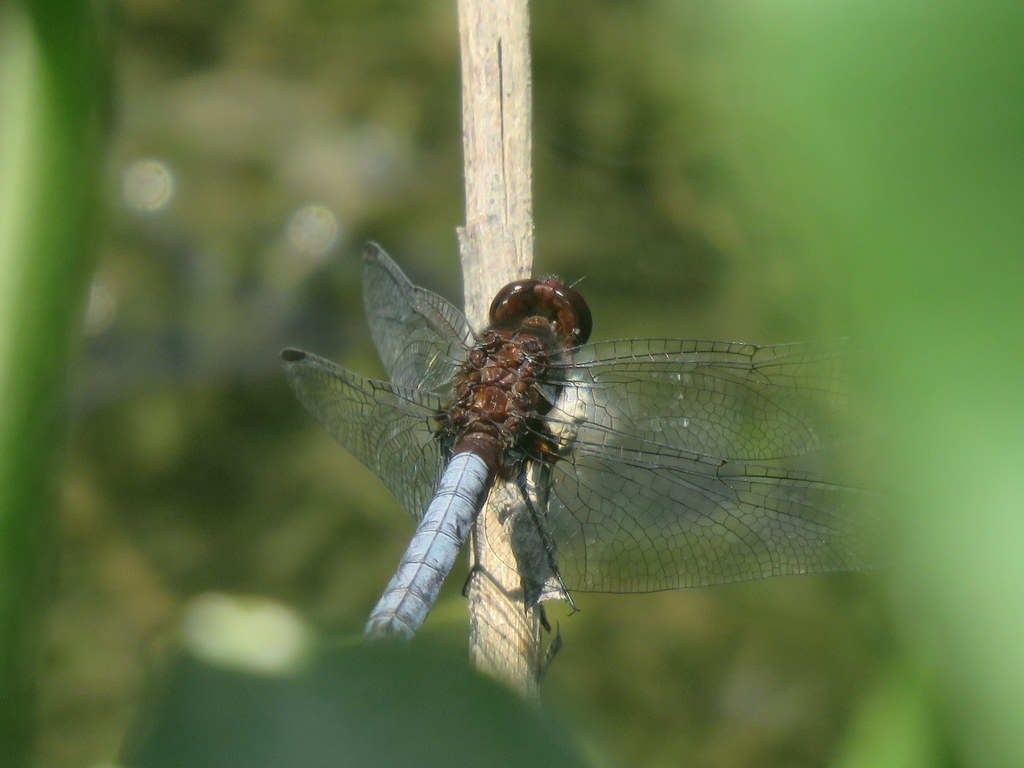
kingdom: Animalia
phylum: Arthropoda
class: Insecta
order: Odonata
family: Libellulidae
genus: Erythrodiplax
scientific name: Erythrodiplax melanorubra
